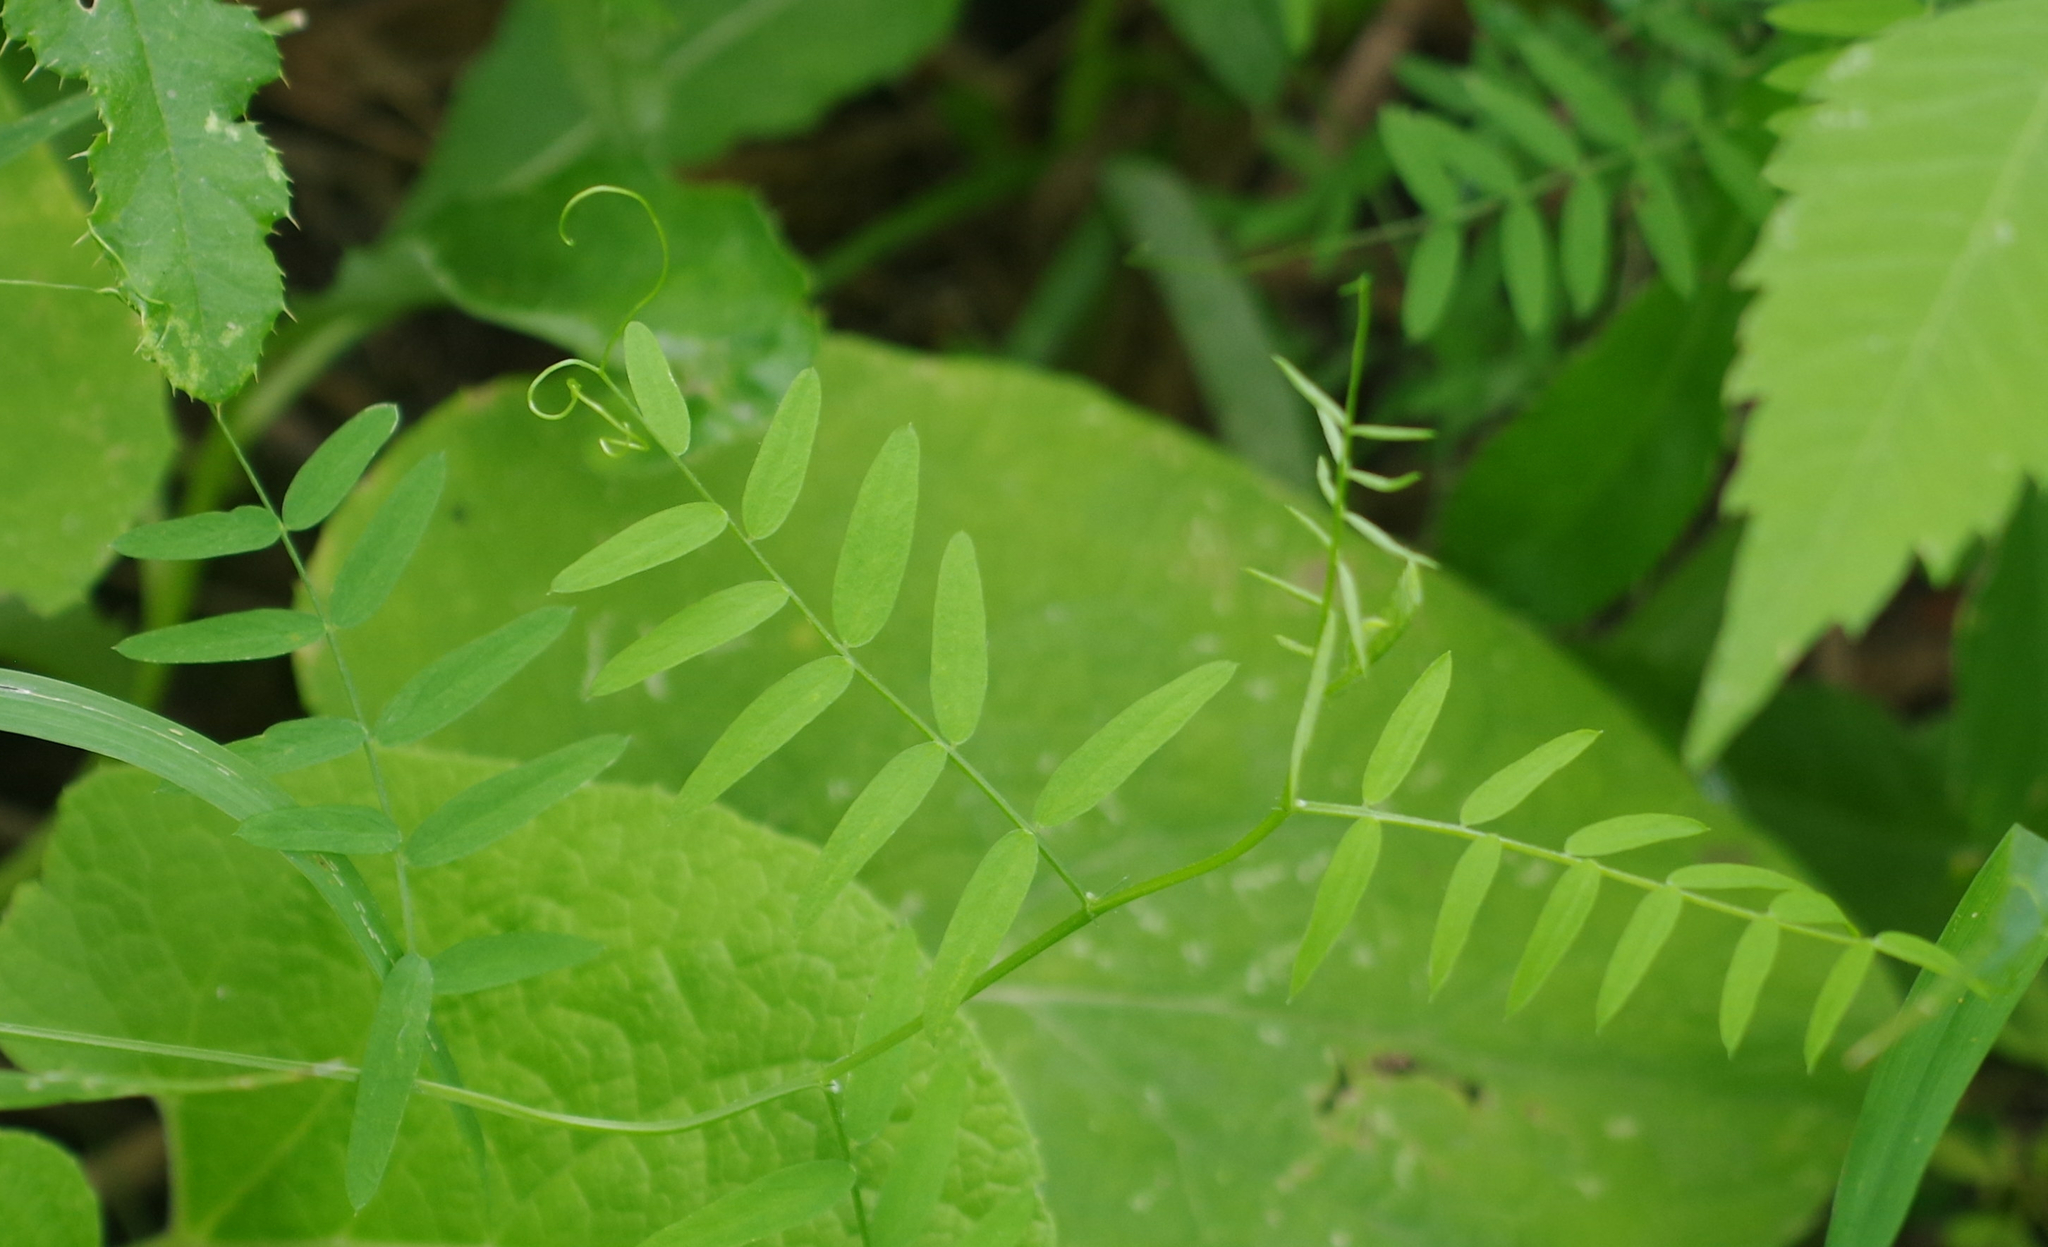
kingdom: Plantae
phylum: Tracheophyta
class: Magnoliopsida
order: Fabales
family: Fabaceae
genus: Vicia
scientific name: Vicia americana
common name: American vetch
